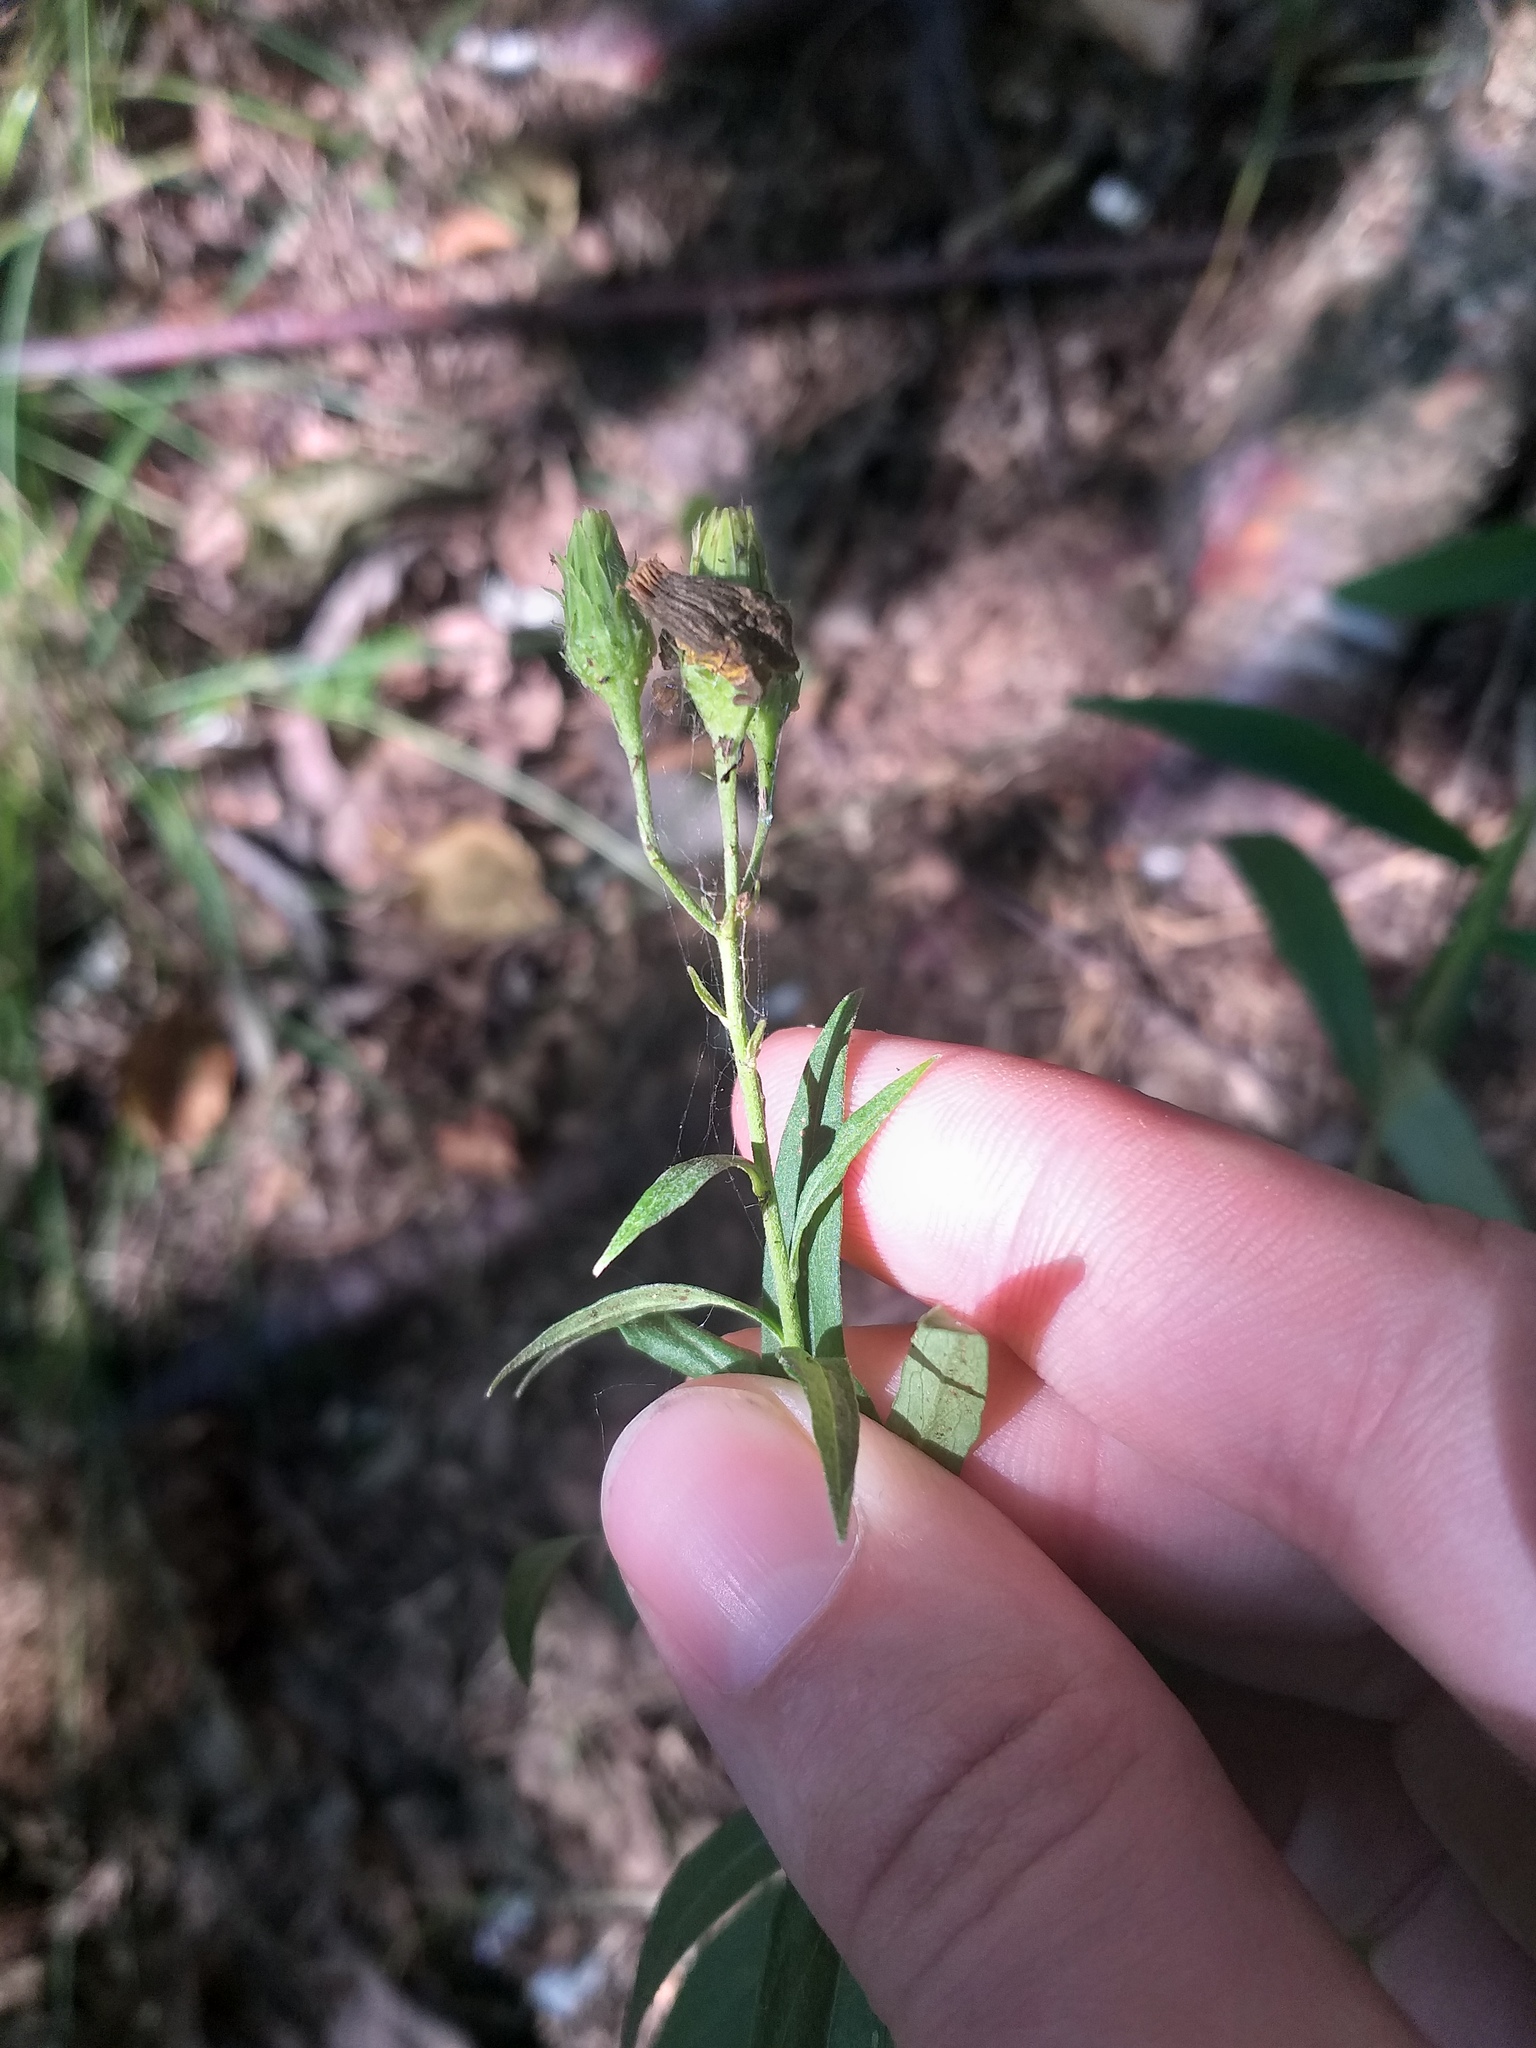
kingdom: Plantae
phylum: Tracheophyta
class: Magnoliopsida
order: Asterales
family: Asteraceae
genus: Hieracium
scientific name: Hieracium umbellatum
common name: Northern hawkweed
